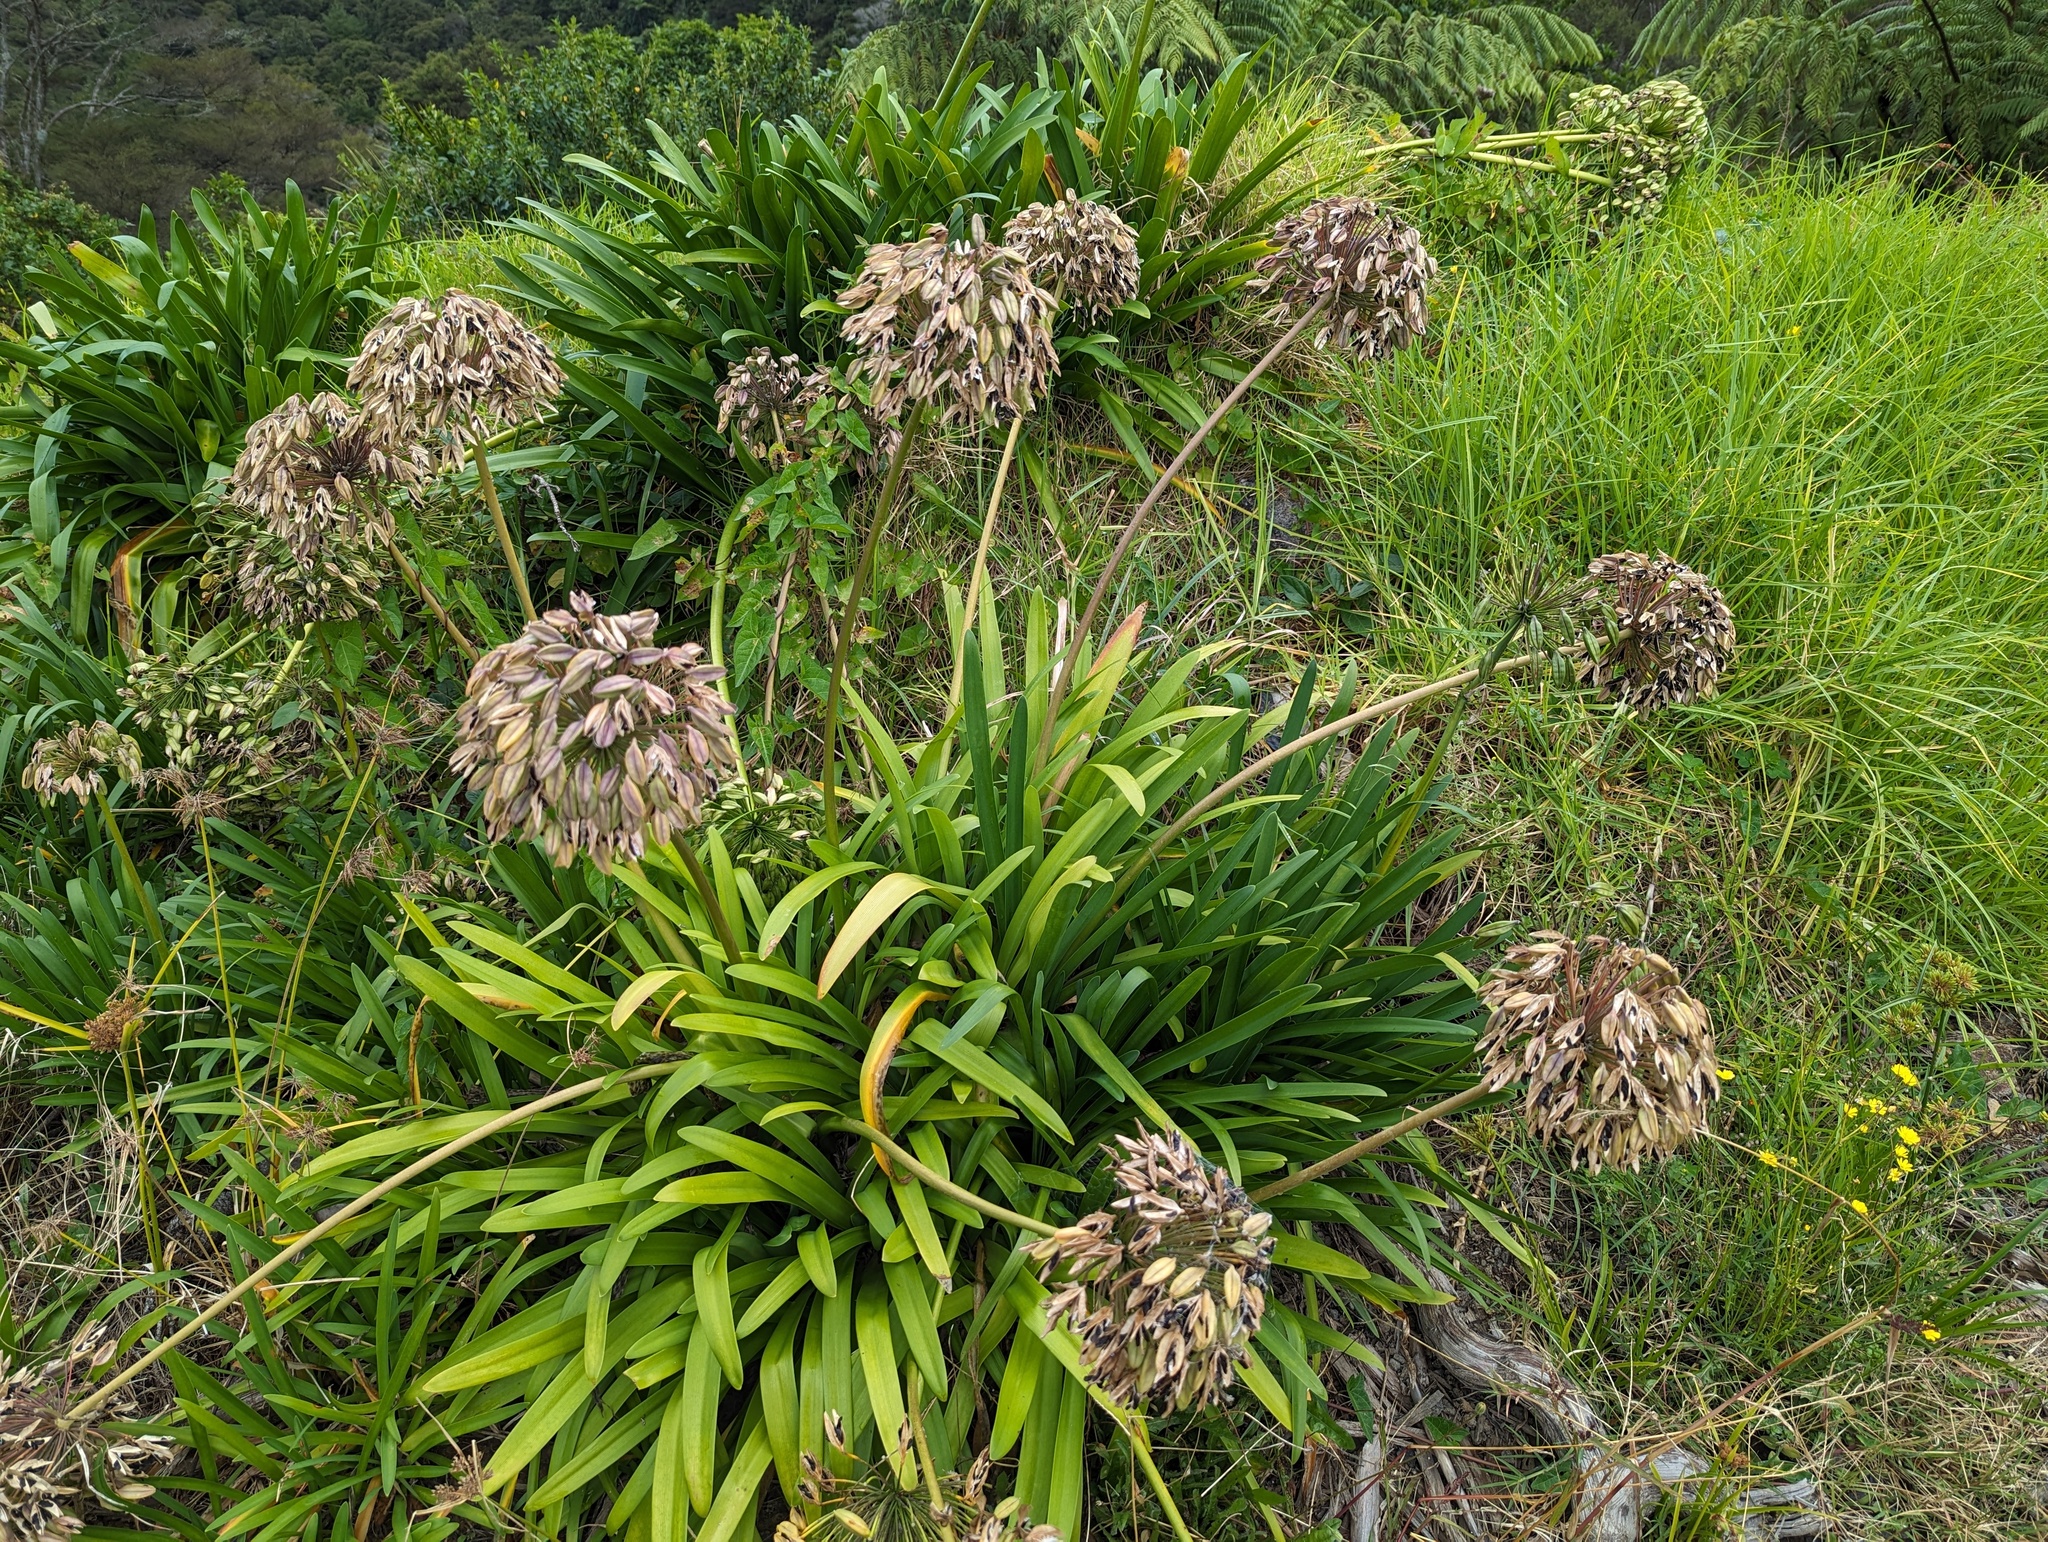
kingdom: Plantae
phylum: Tracheophyta
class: Liliopsida
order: Asparagales
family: Amaryllidaceae
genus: Agapanthus
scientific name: Agapanthus praecox
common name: African-lily
